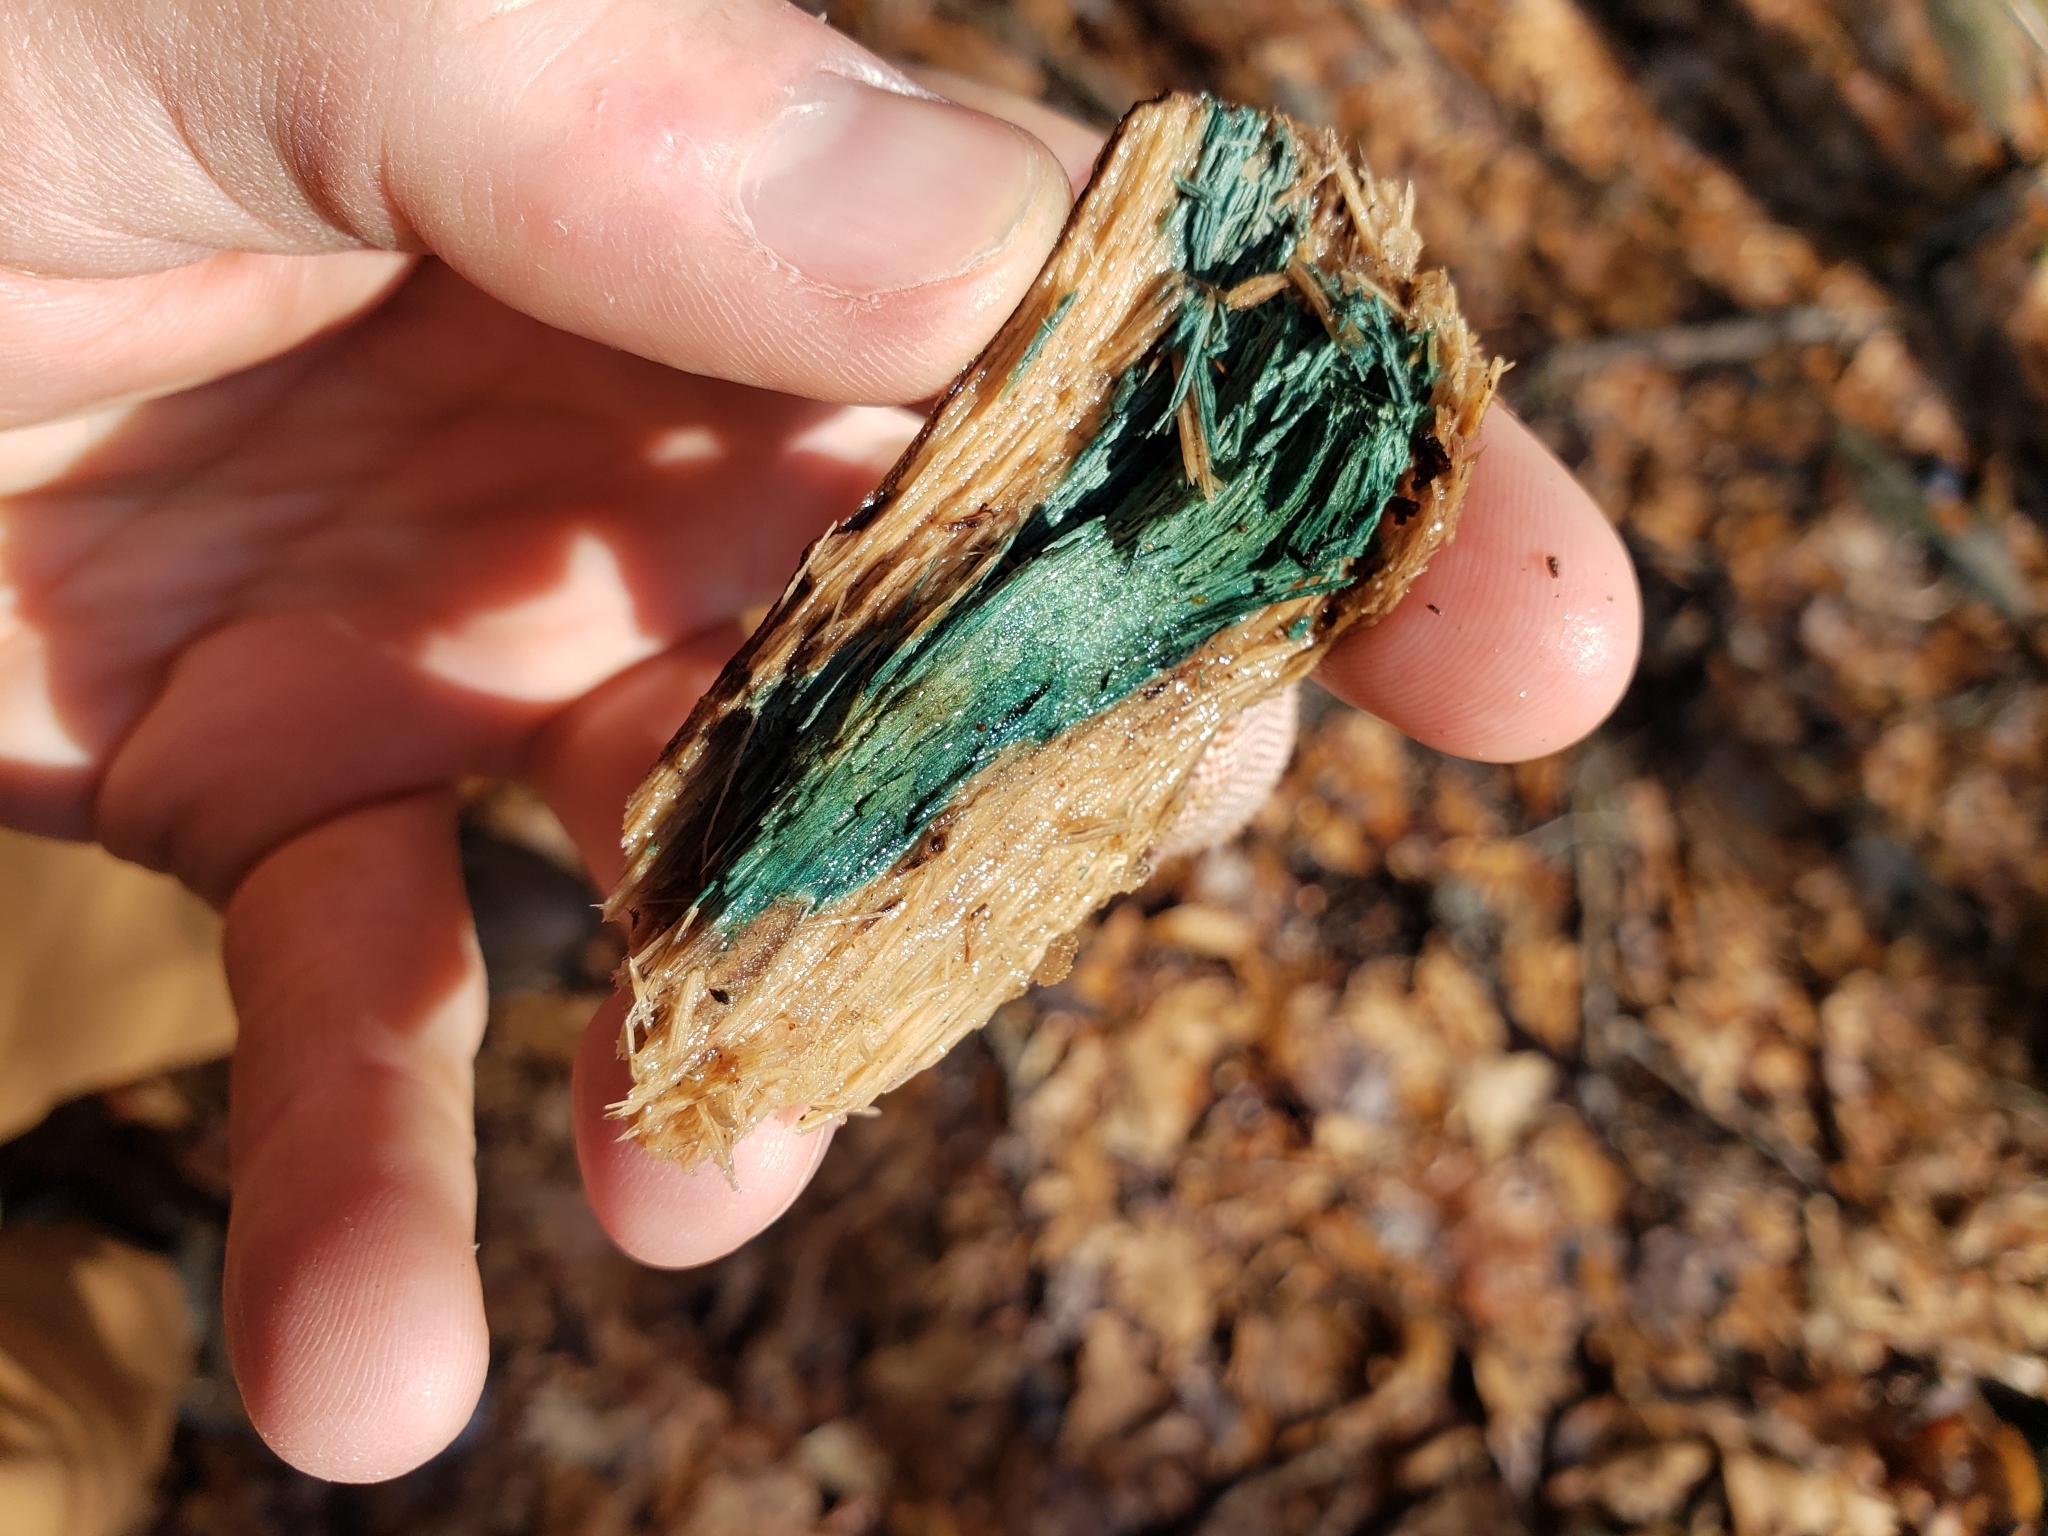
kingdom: Fungi
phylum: Ascomycota
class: Leotiomycetes
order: Helotiales
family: Chlorociboriaceae
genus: Chlorociboria
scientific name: Chlorociboria
